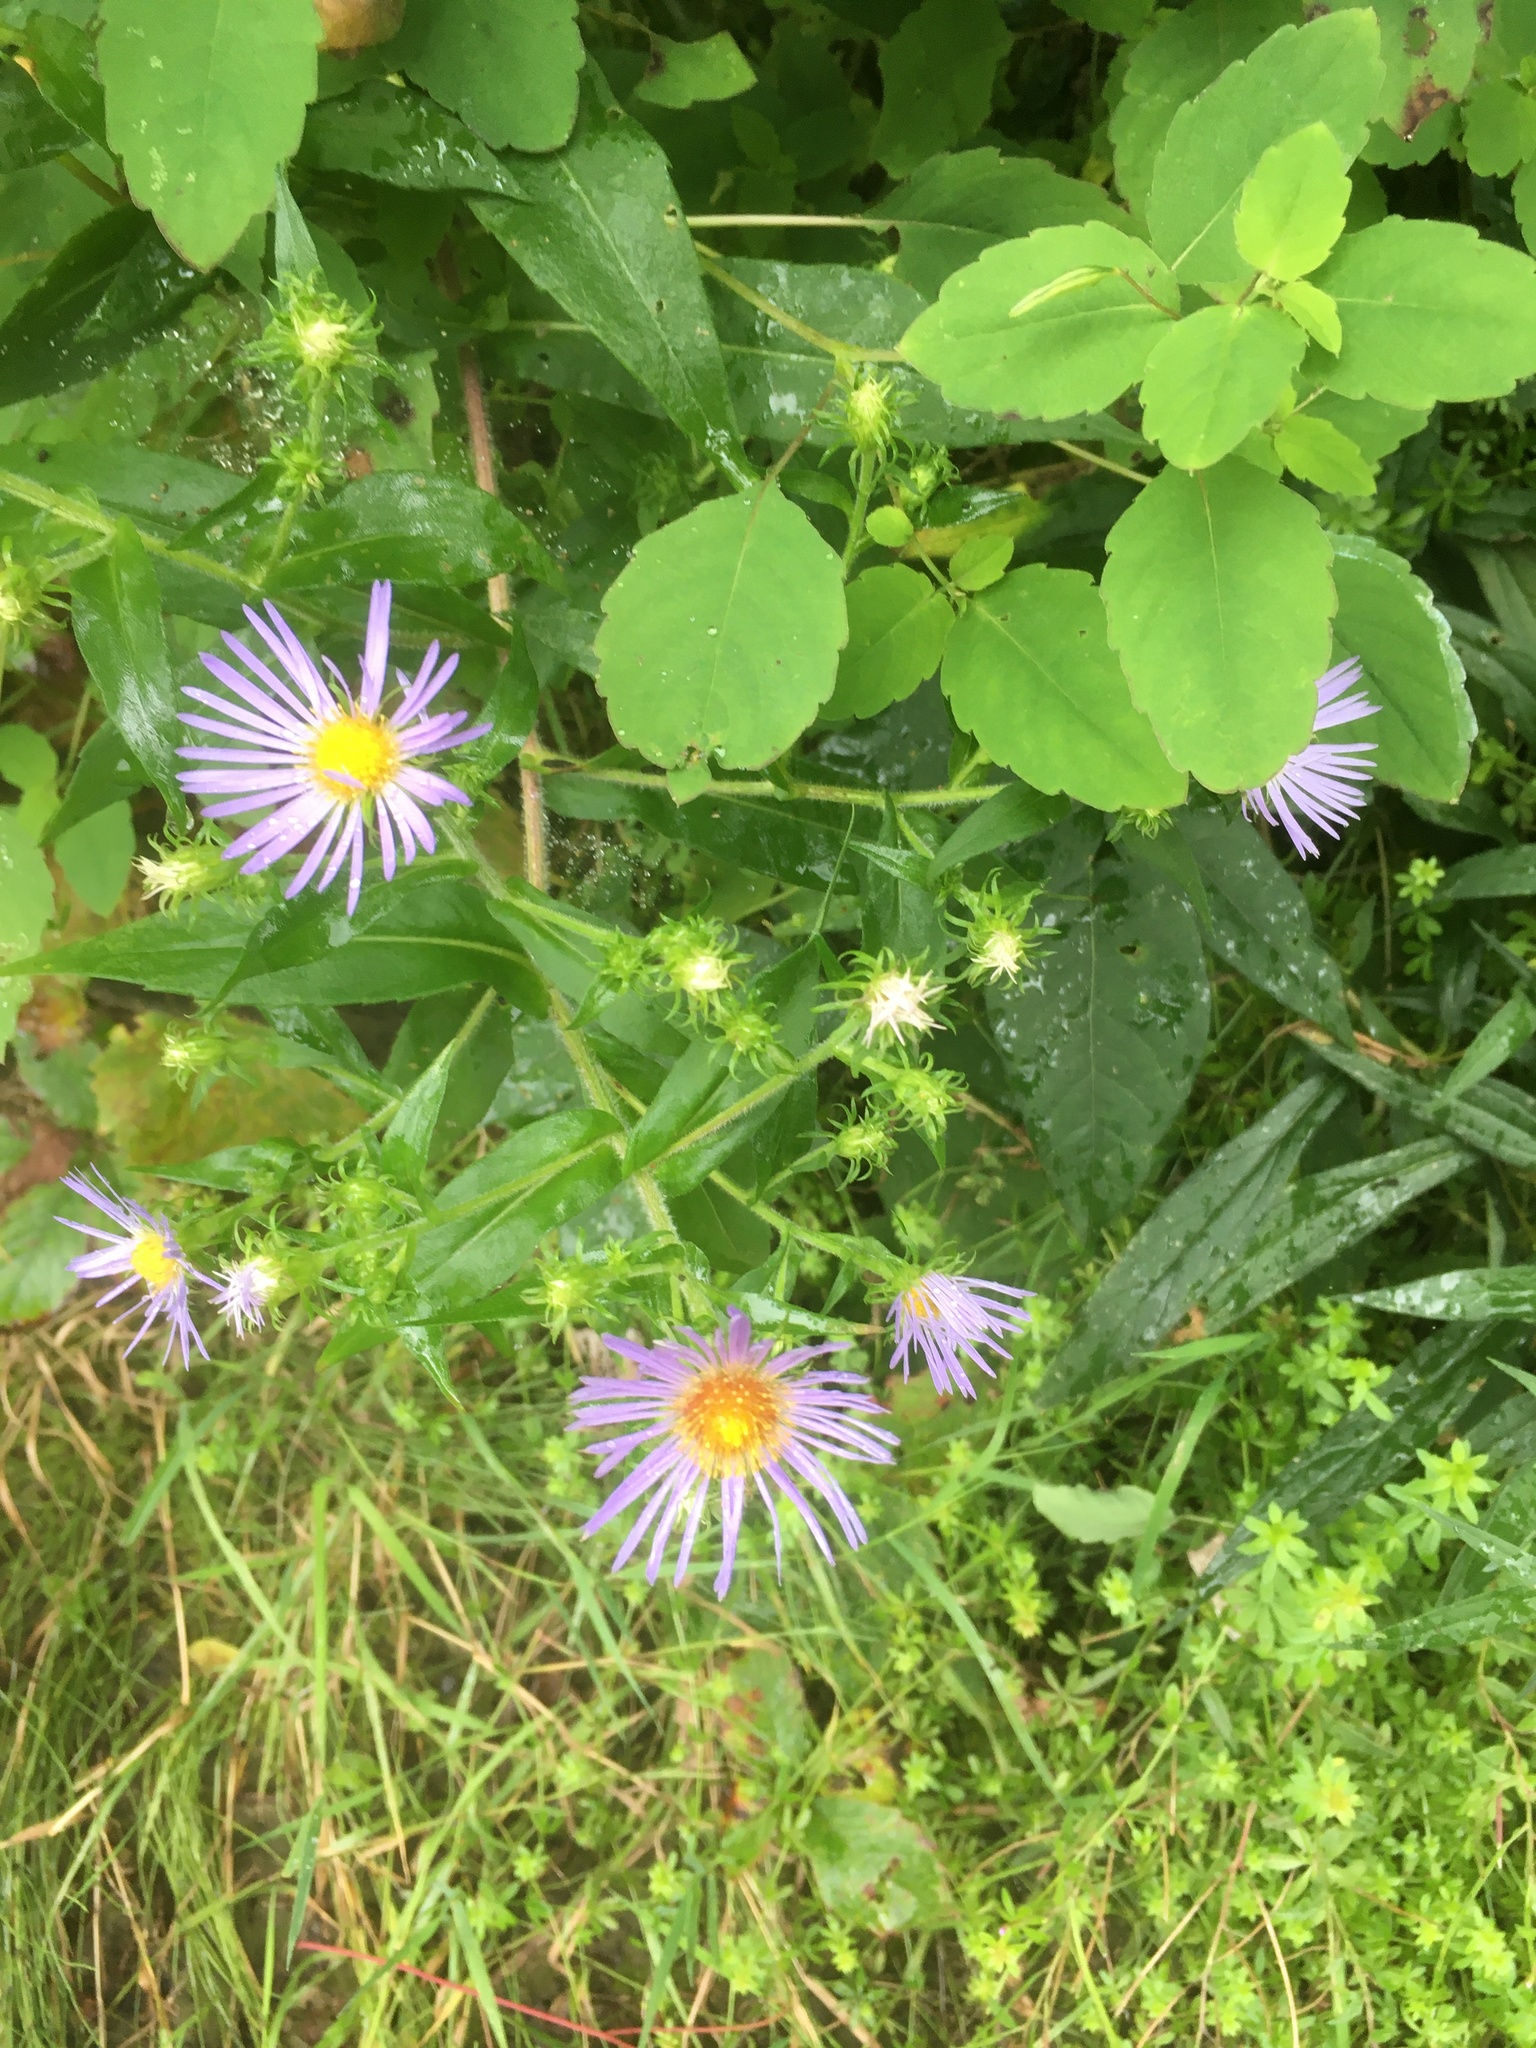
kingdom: Plantae
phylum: Tracheophyta
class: Magnoliopsida
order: Asterales
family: Asteraceae
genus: Symphyotrichum
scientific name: Symphyotrichum puniceum
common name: Bog aster
